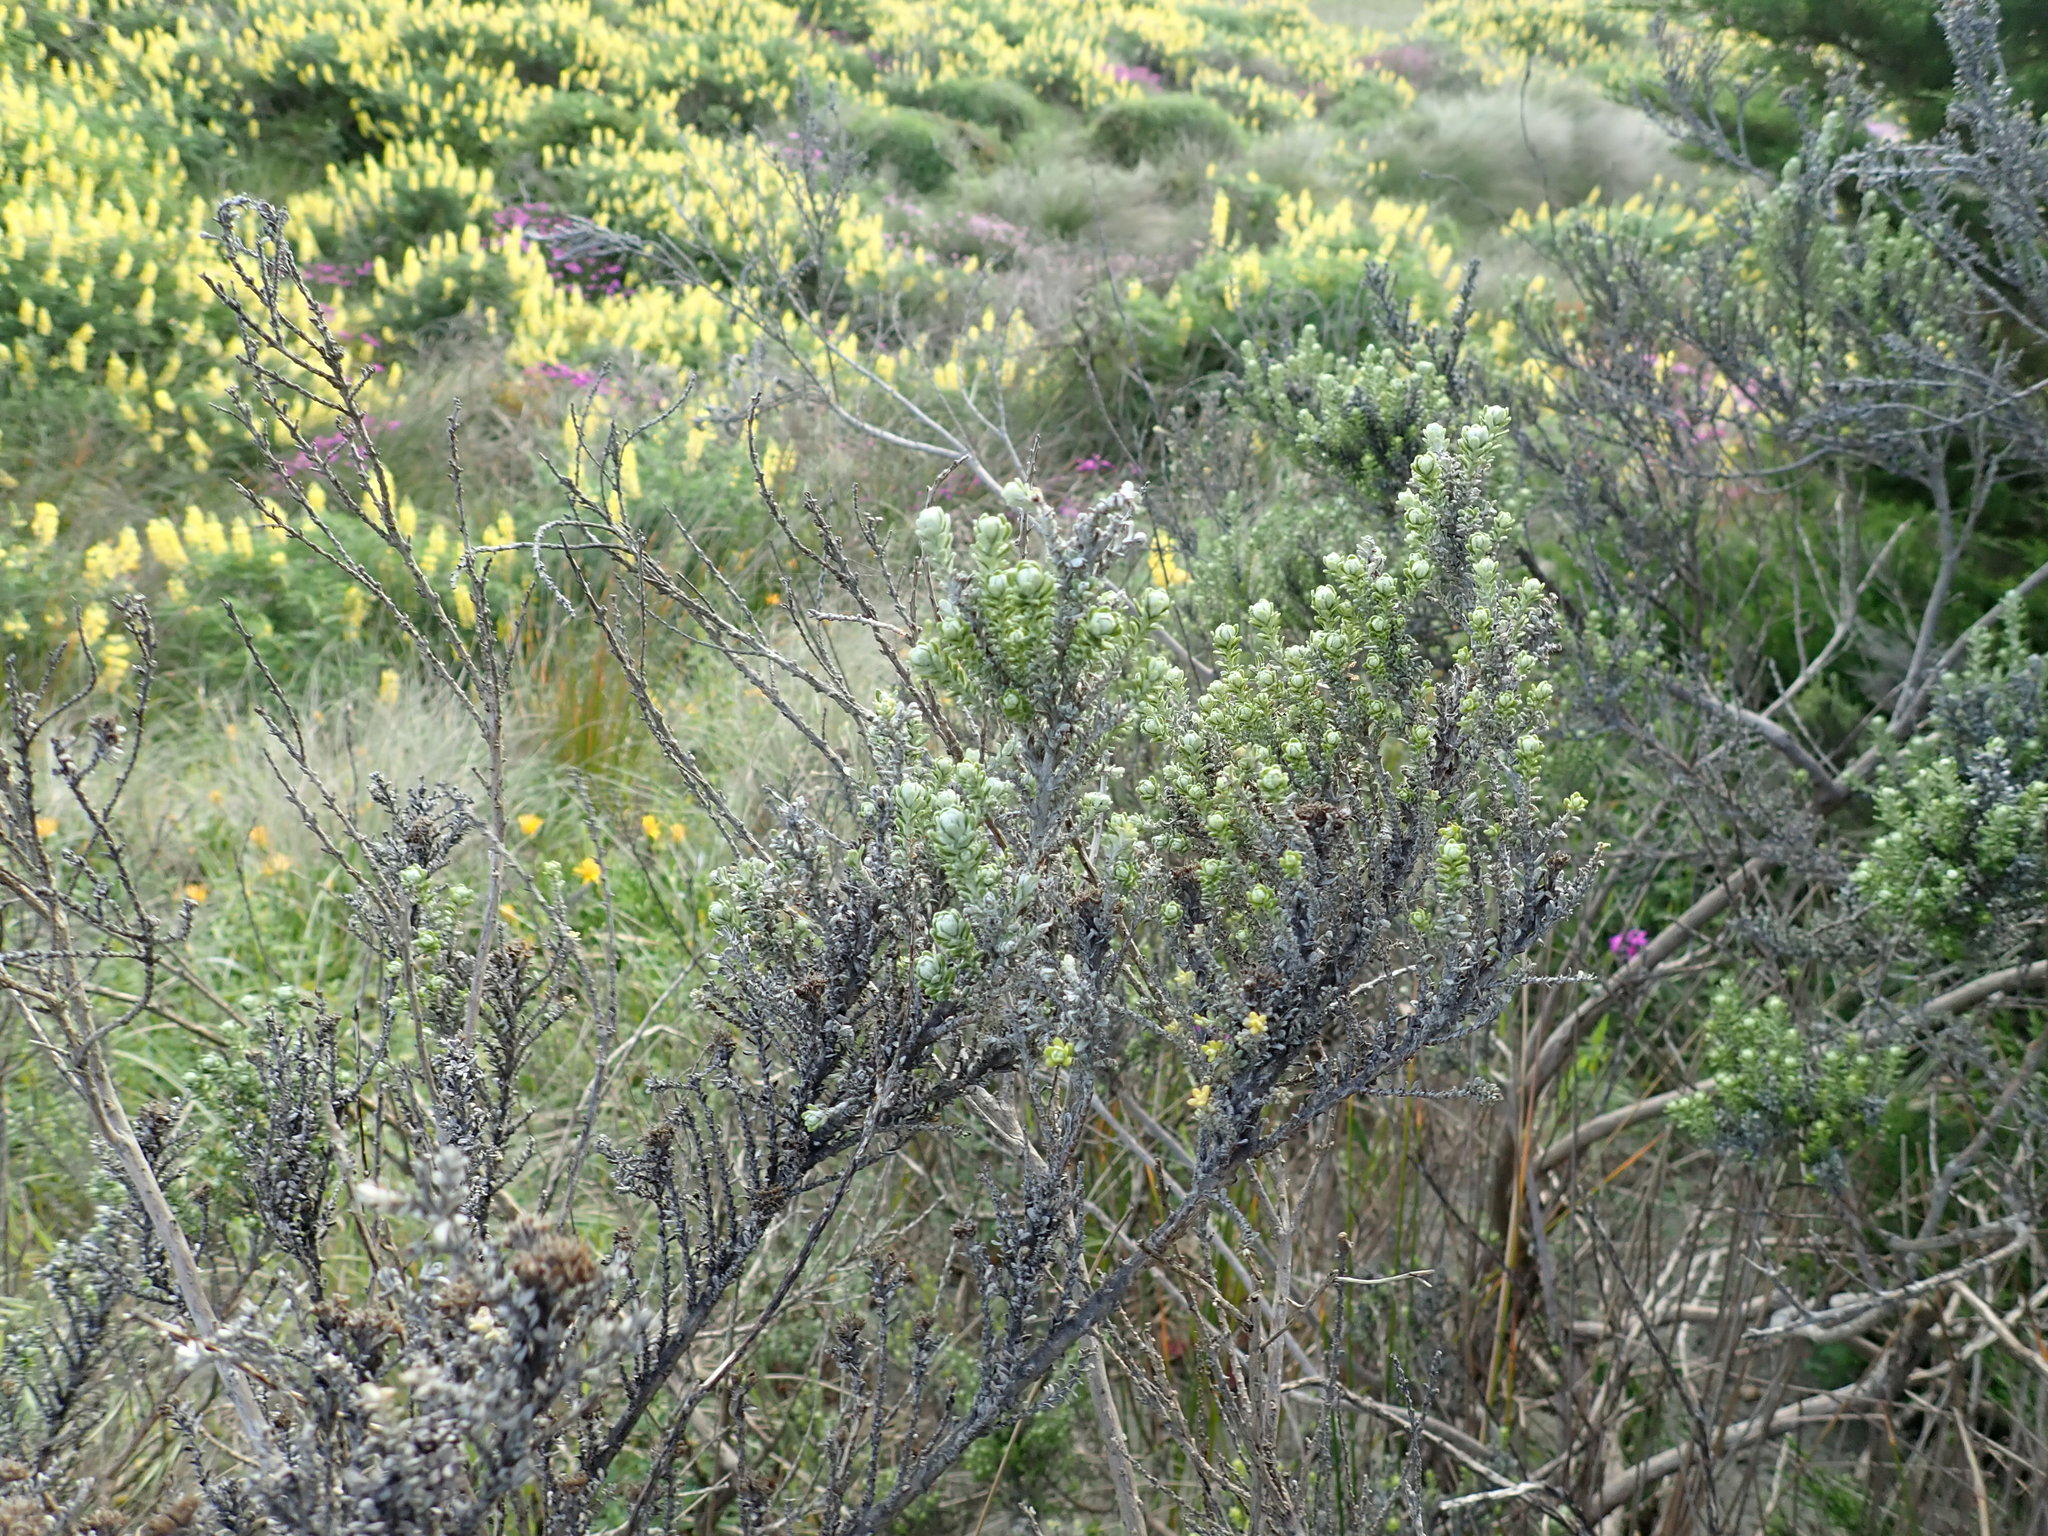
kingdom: Plantae
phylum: Tracheophyta
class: Magnoliopsida
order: Asterales
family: Asteraceae
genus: Ozothamnus
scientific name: Ozothamnus leptophyllus
